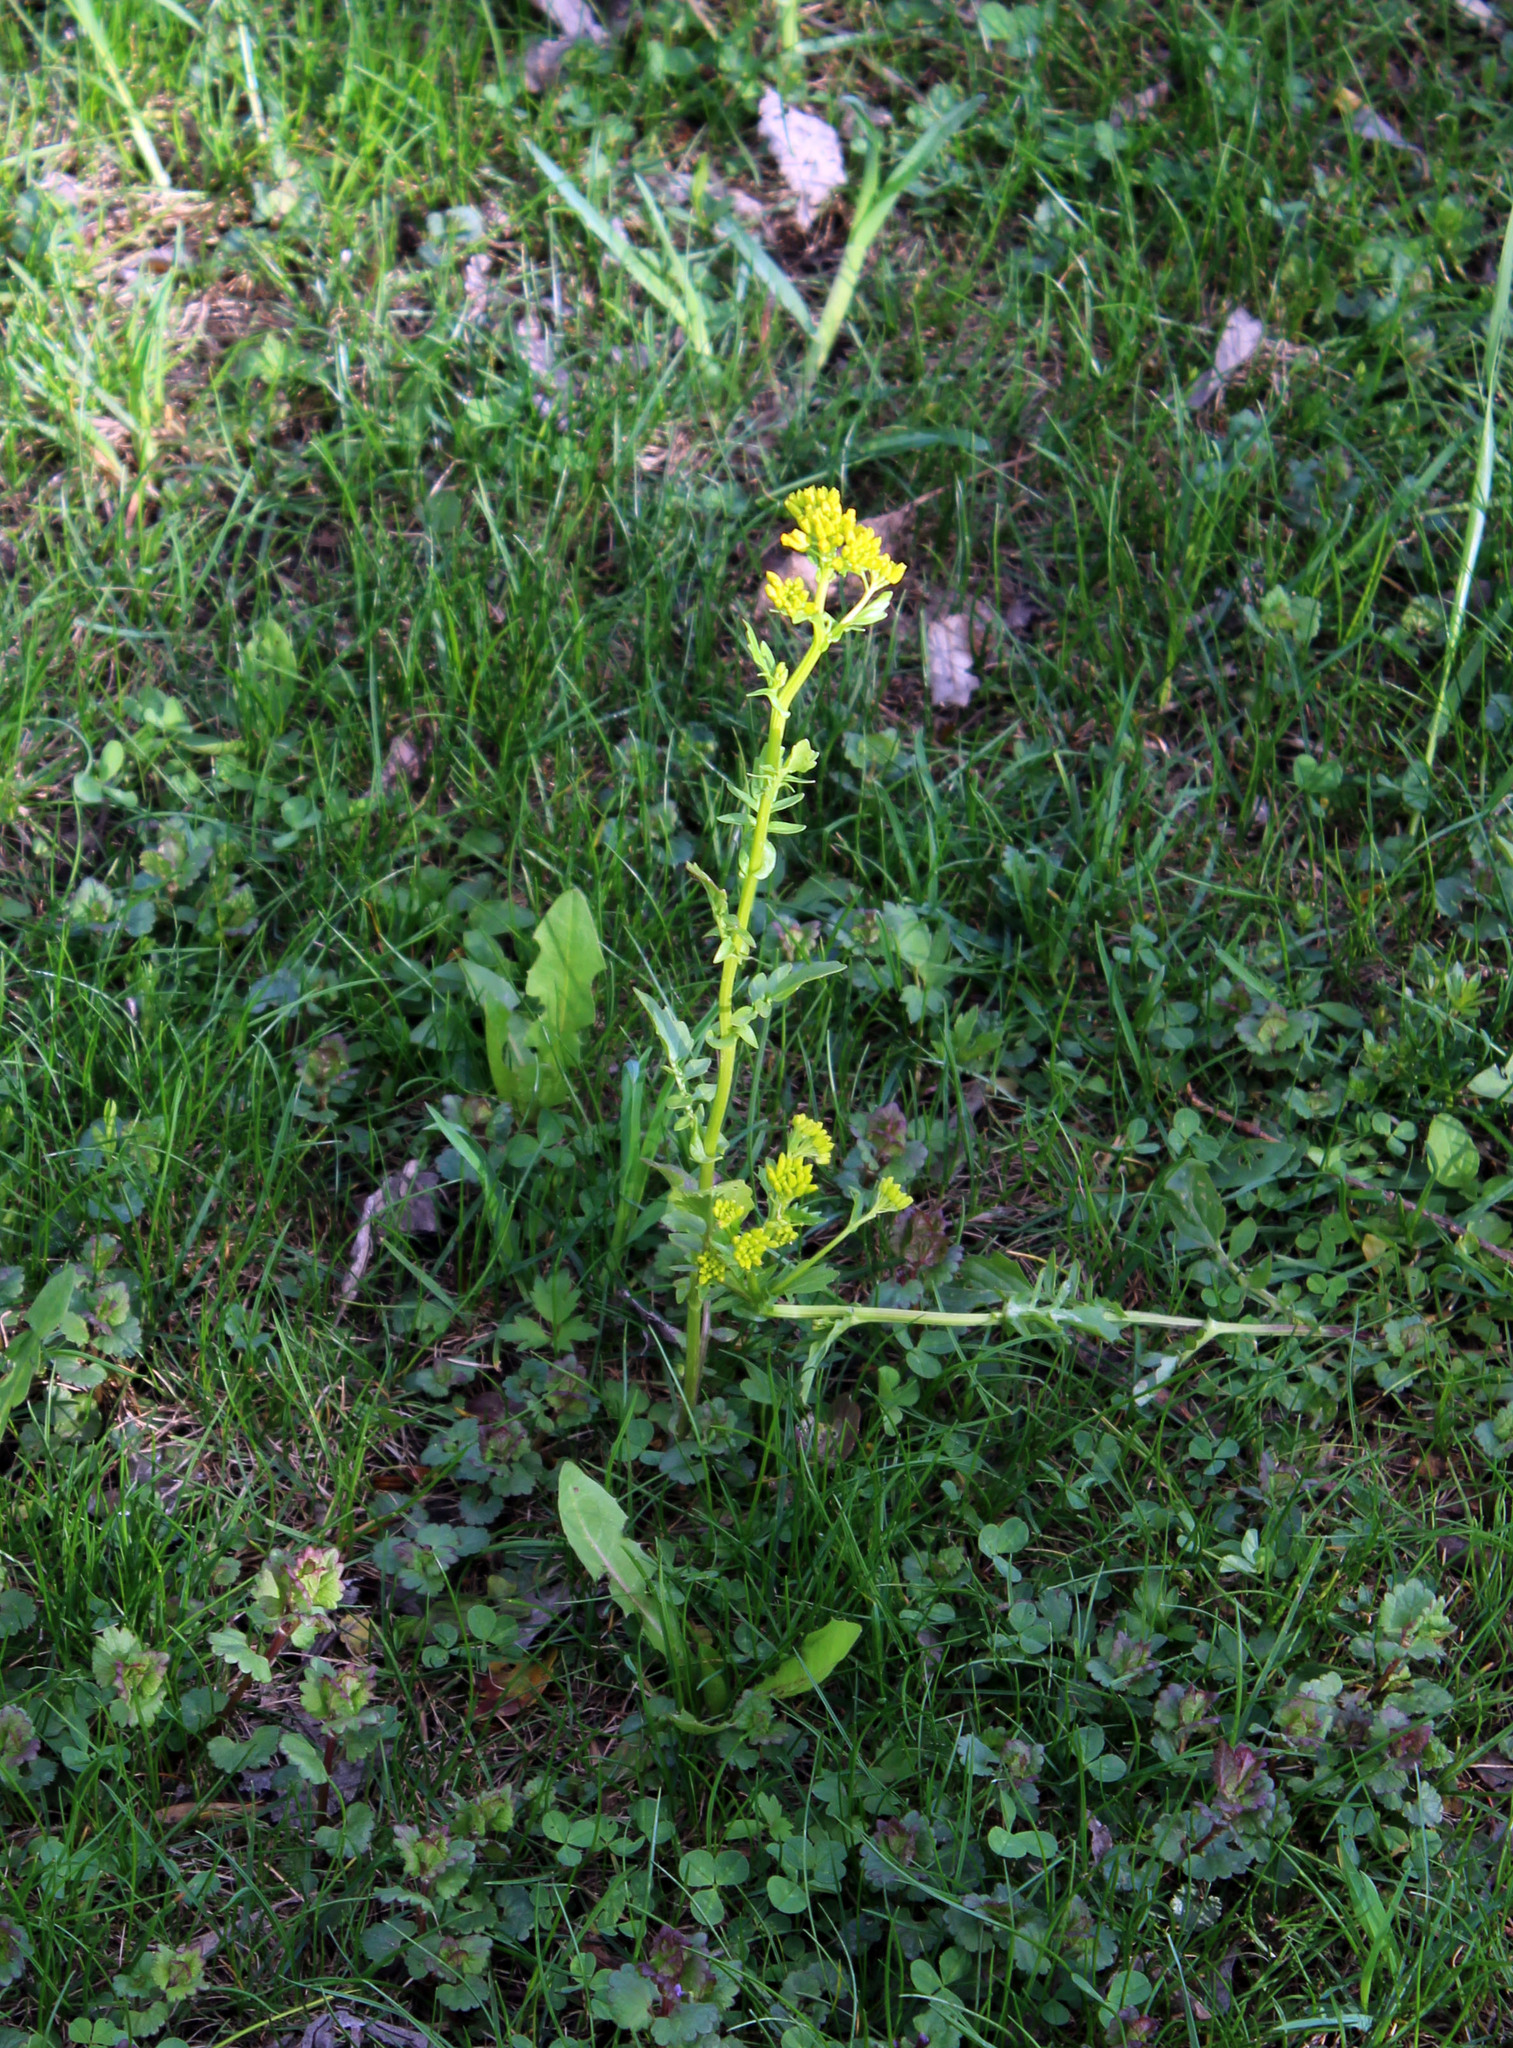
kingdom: Plantae
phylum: Tracheophyta
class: Magnoliopsida
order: Brassicales
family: Brassicaceae
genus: Barbarea
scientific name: Barbarea vulgaris
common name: Cressy-greens
